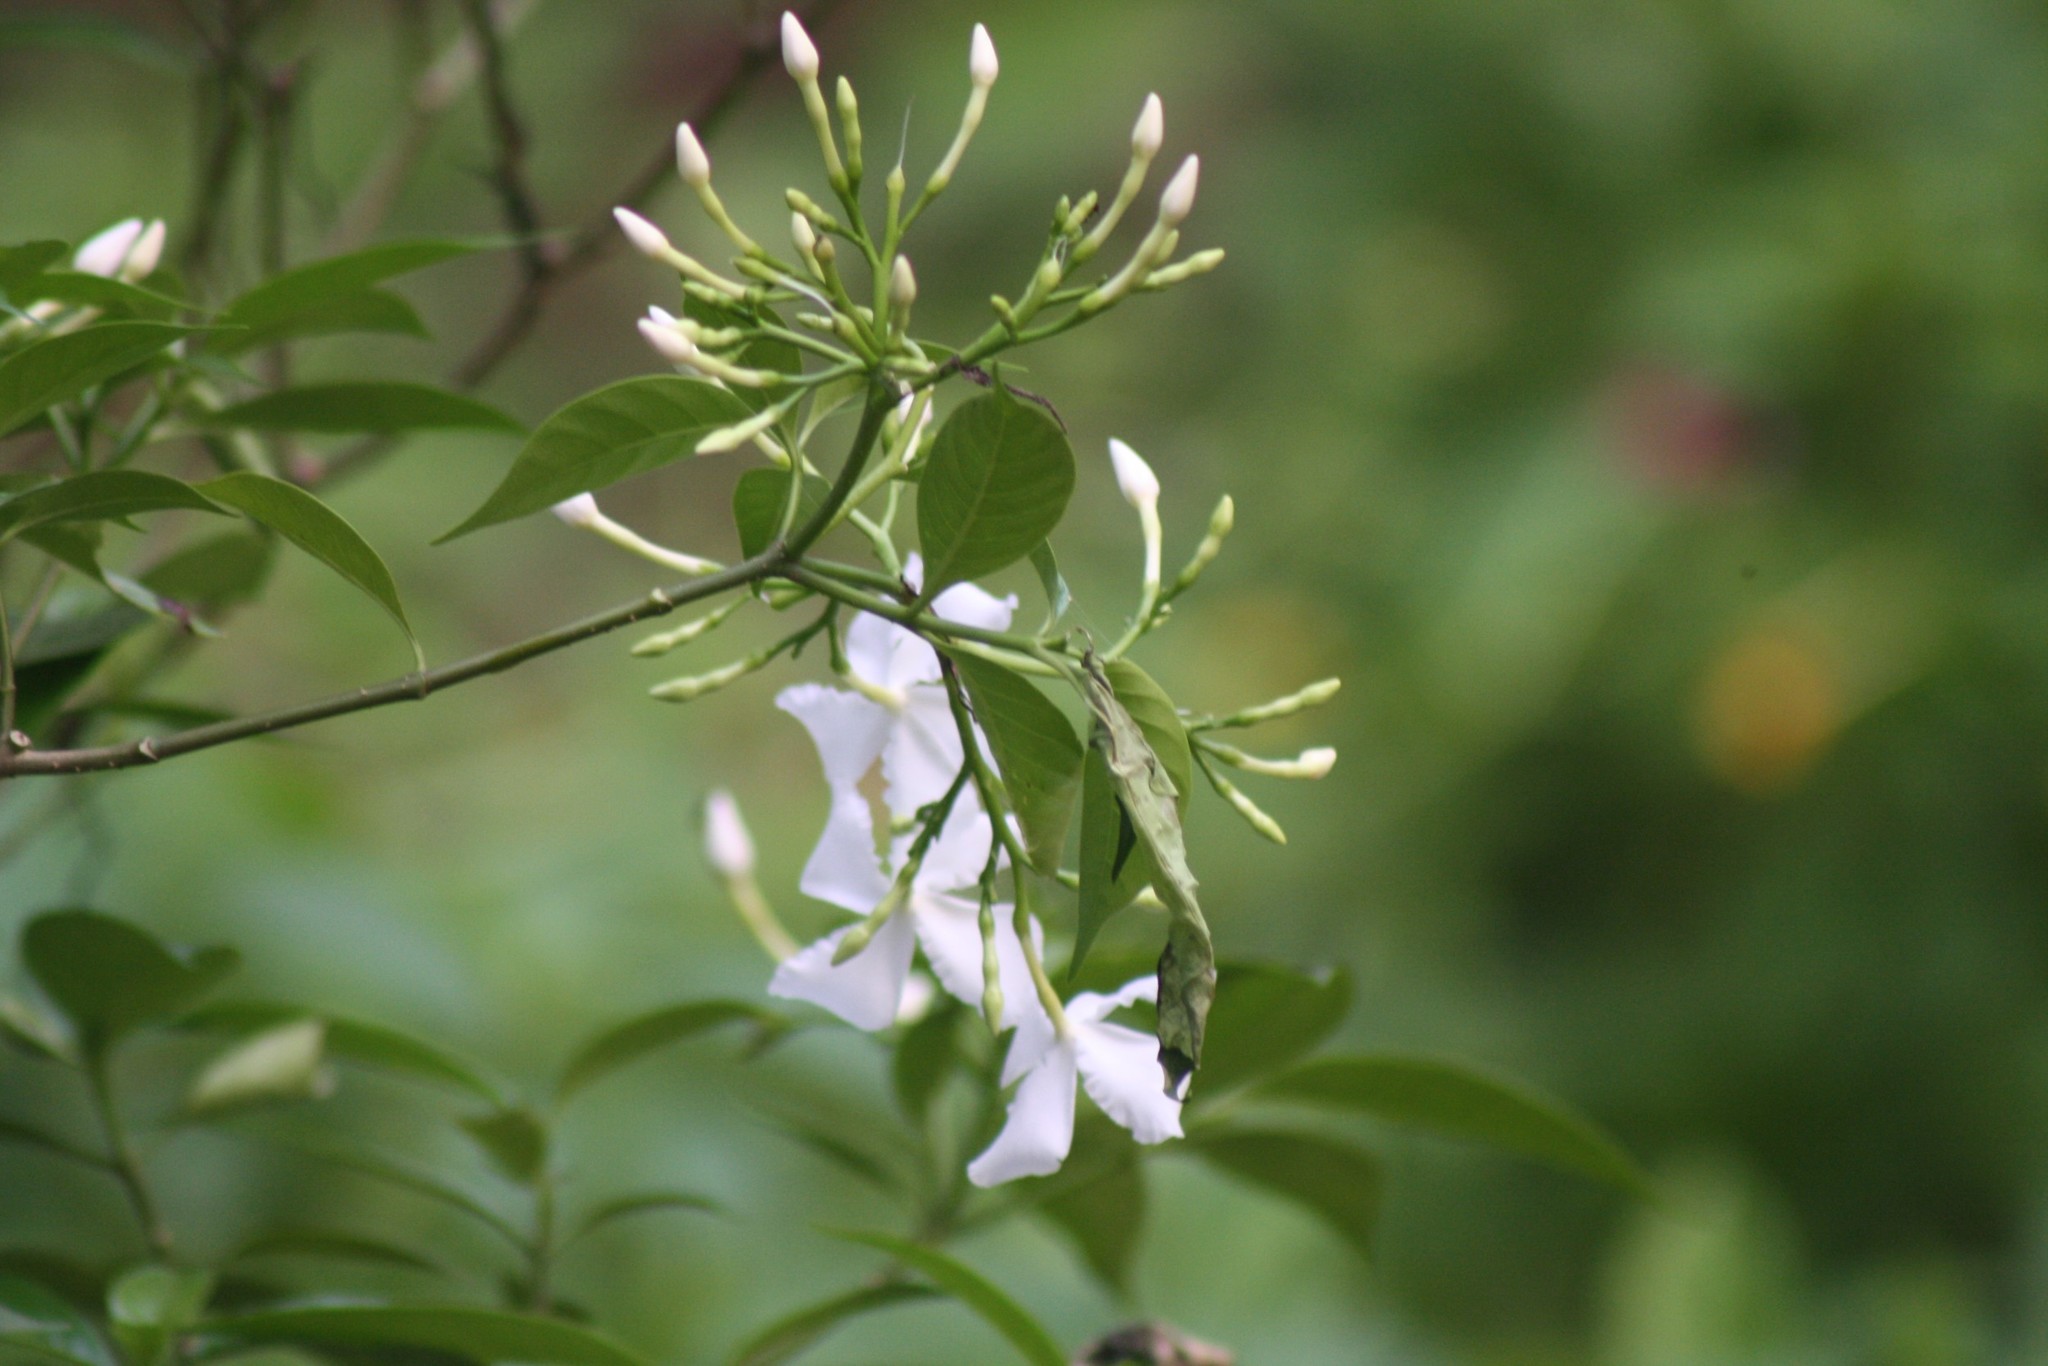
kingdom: Plantae
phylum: Tracheophyta
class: Magnoliopsida
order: Gentianales
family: Apocynaceae
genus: Tabernaemontana
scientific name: Tabernaemontana divaricata
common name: Pinwheelflower
